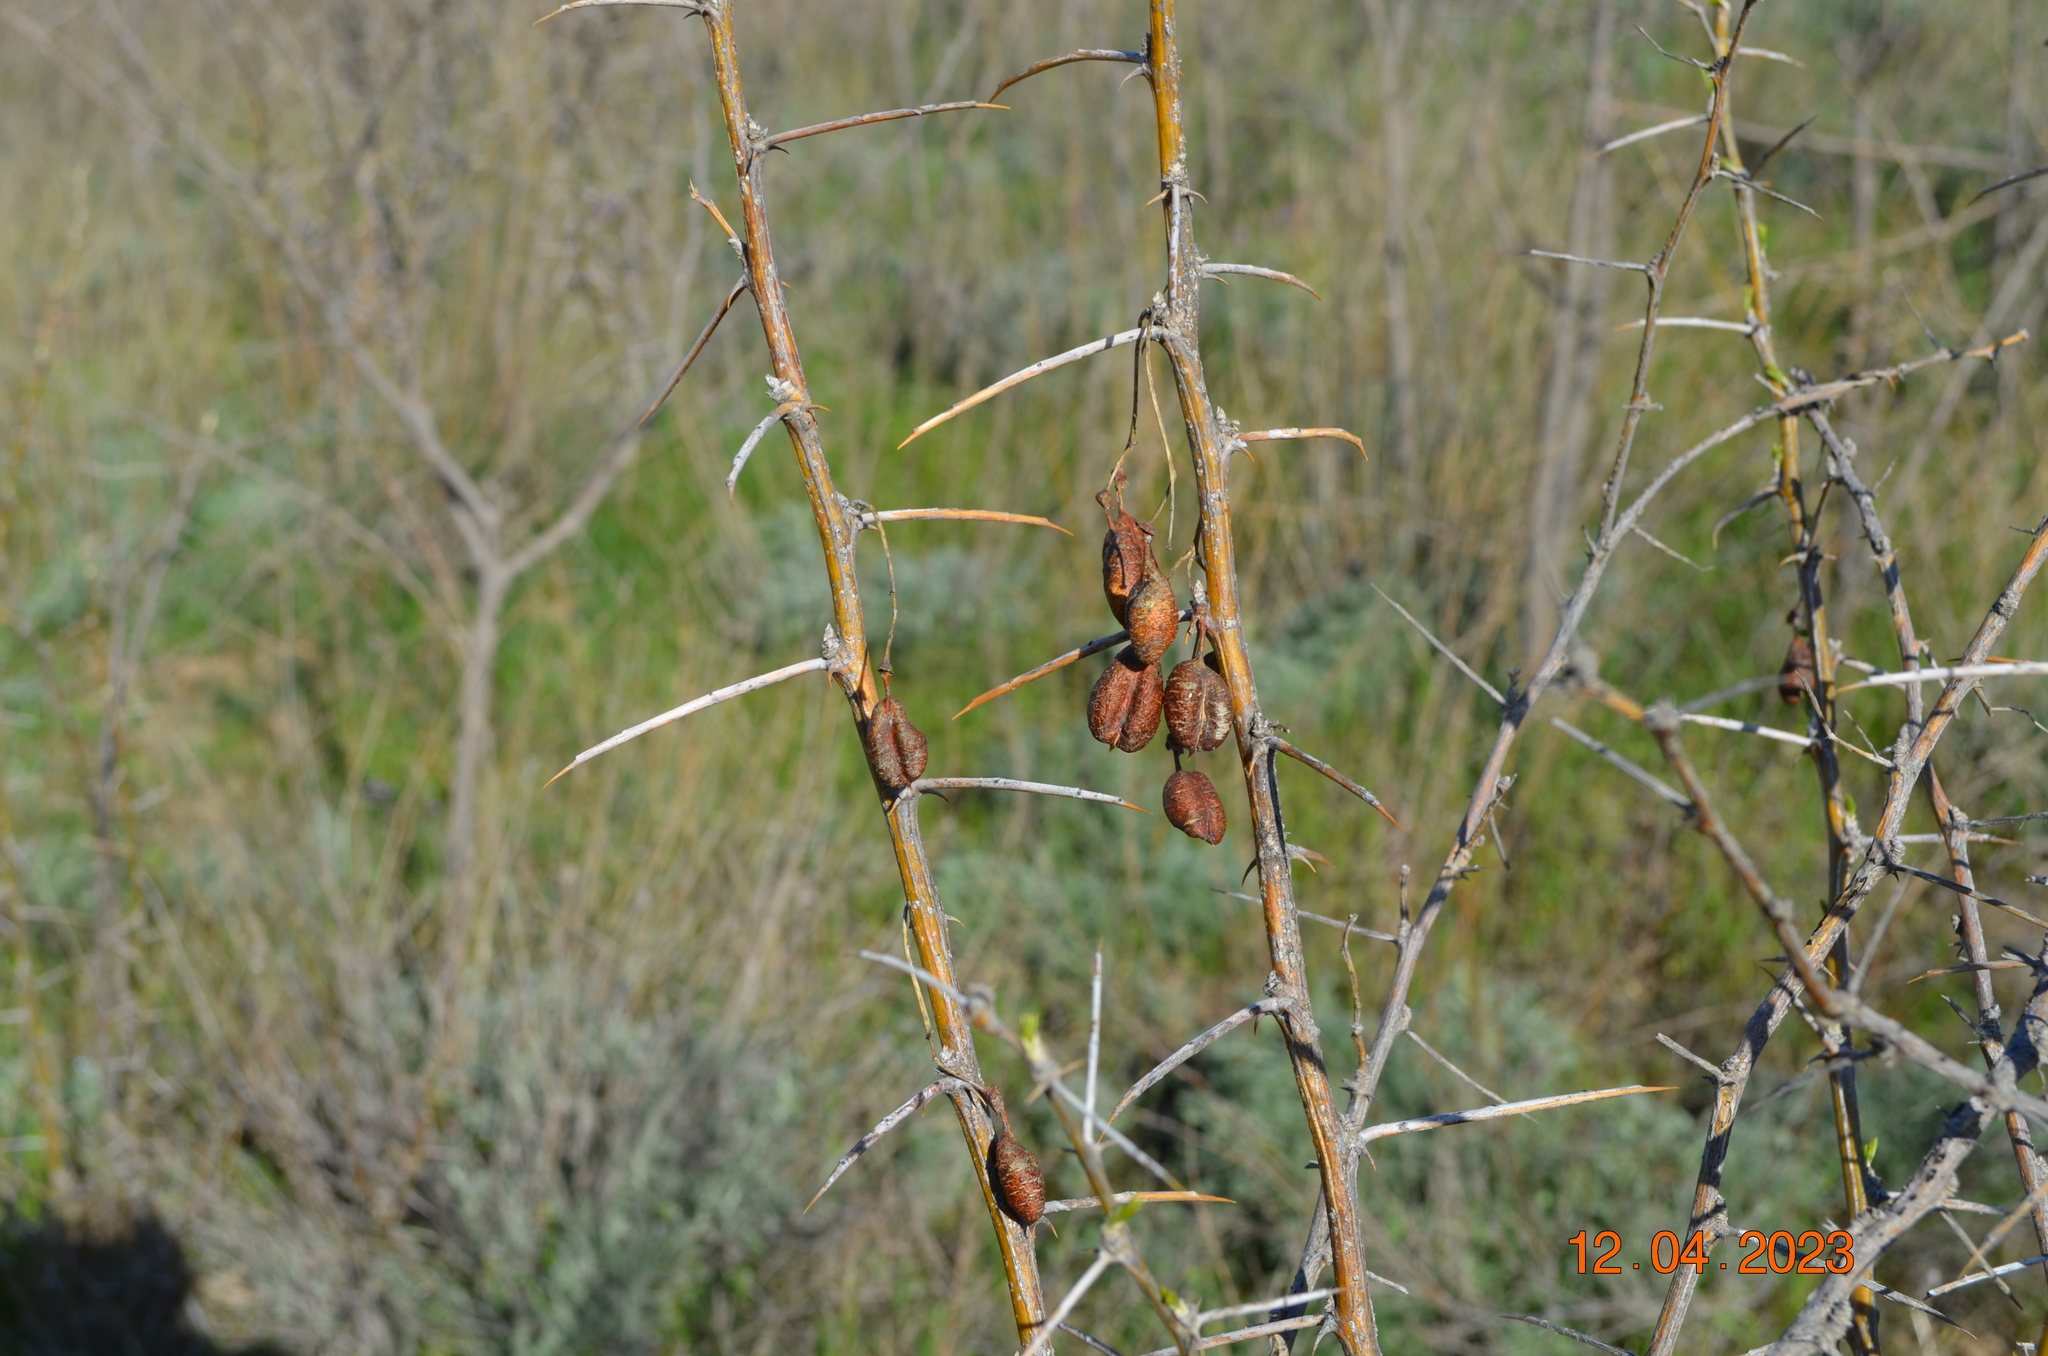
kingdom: Plantae
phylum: Tracheophyta
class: Magnoliopsida
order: Fabales
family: Fabaceae
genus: Caragana
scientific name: Caragana halodendron
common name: Siberian salt-tree
